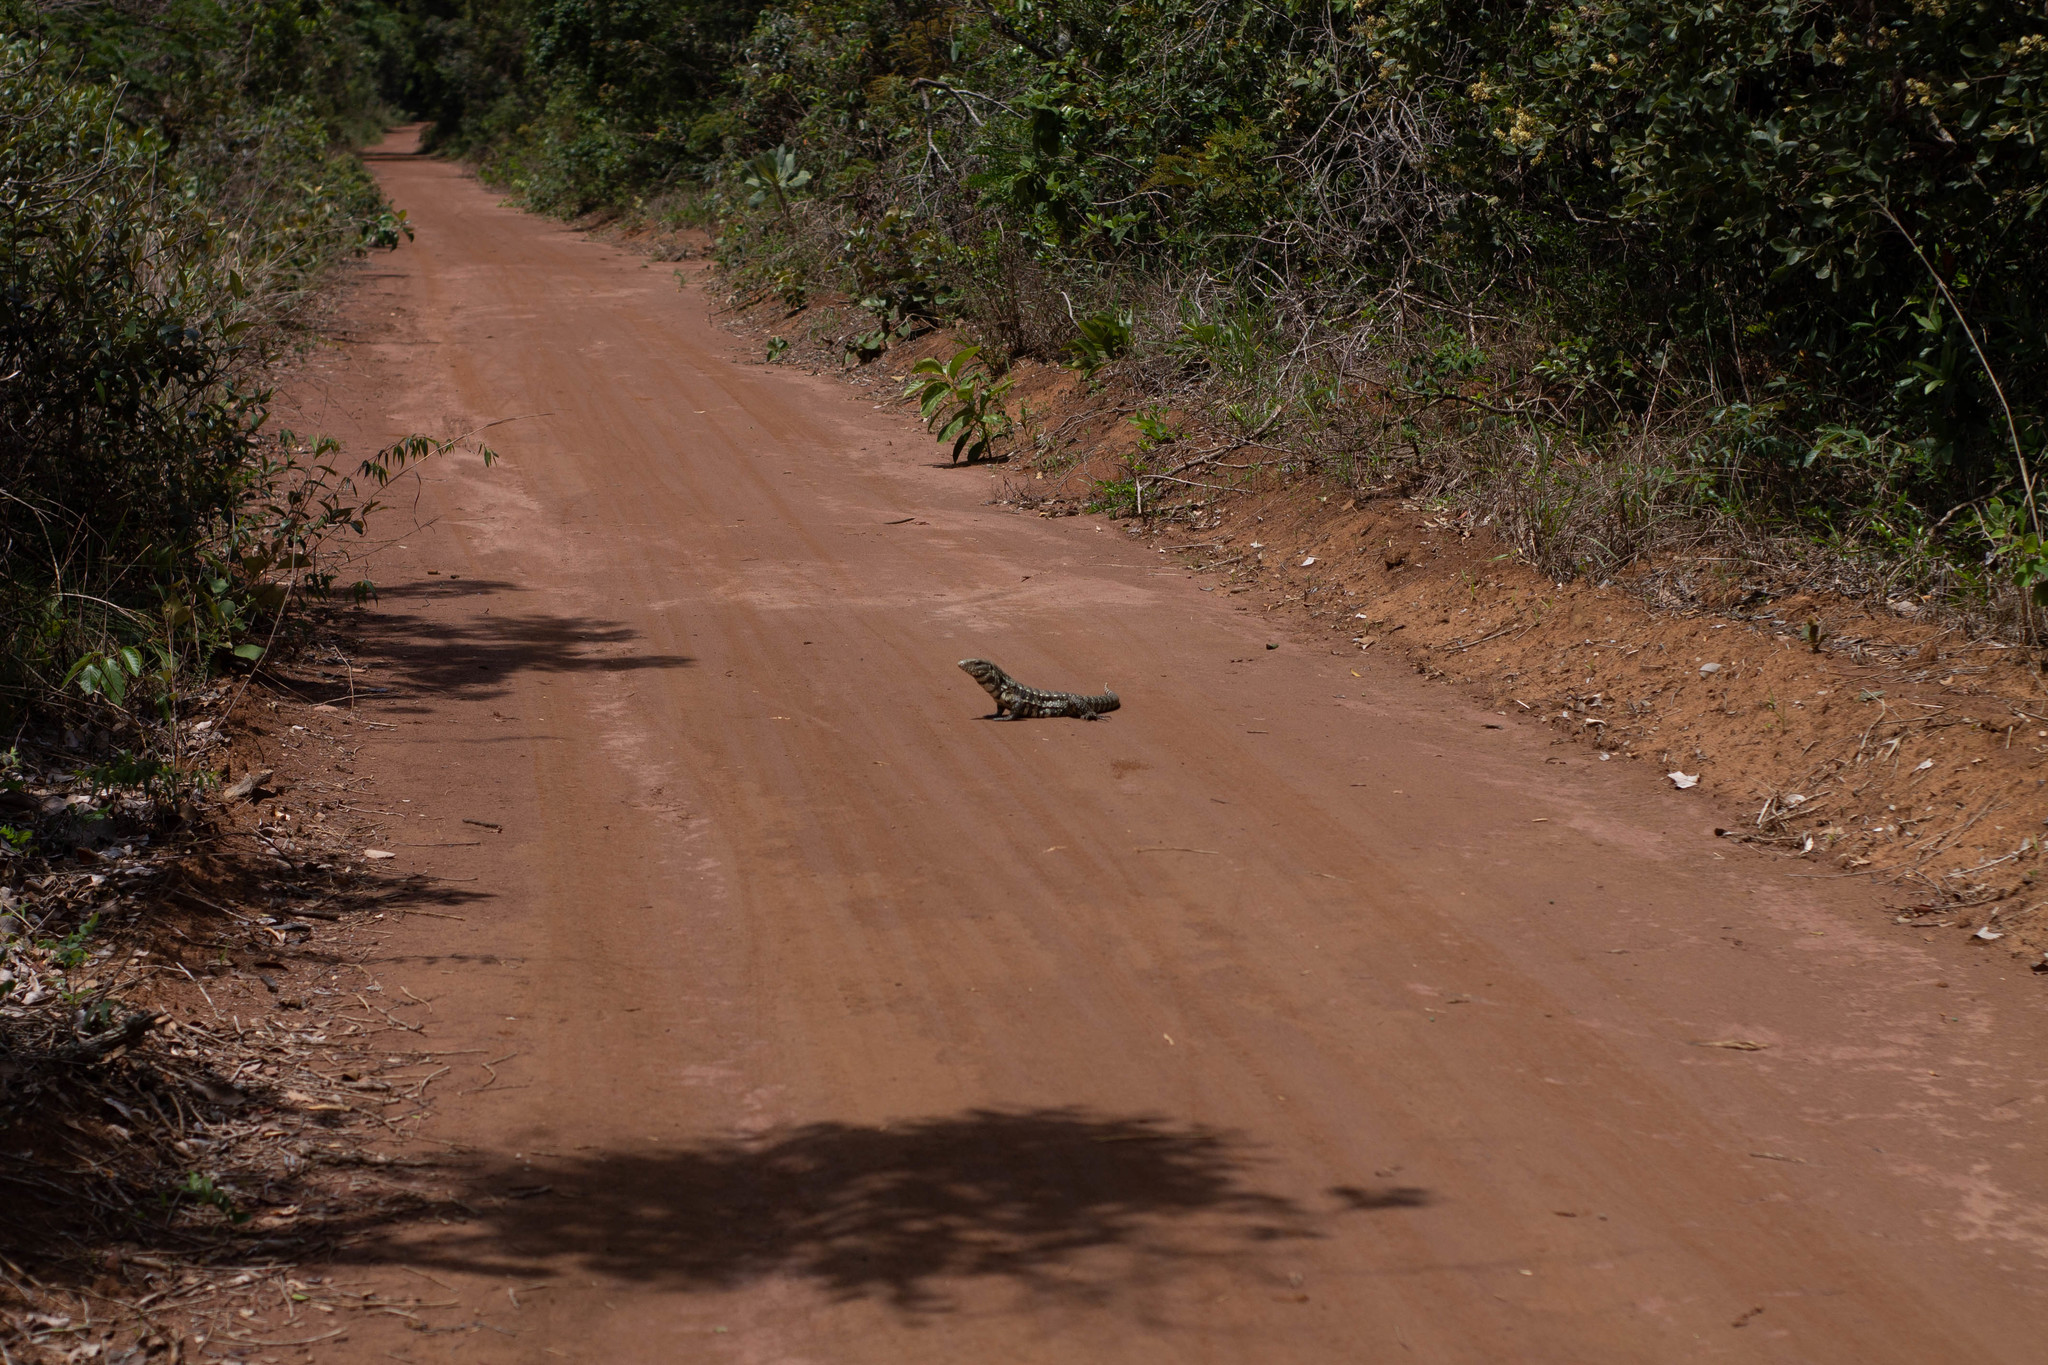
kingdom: Animalia
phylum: Chordata
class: Squamata
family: Teiidae
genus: Salvator
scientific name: Salvator merianae
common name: Argentine black and white tegu
